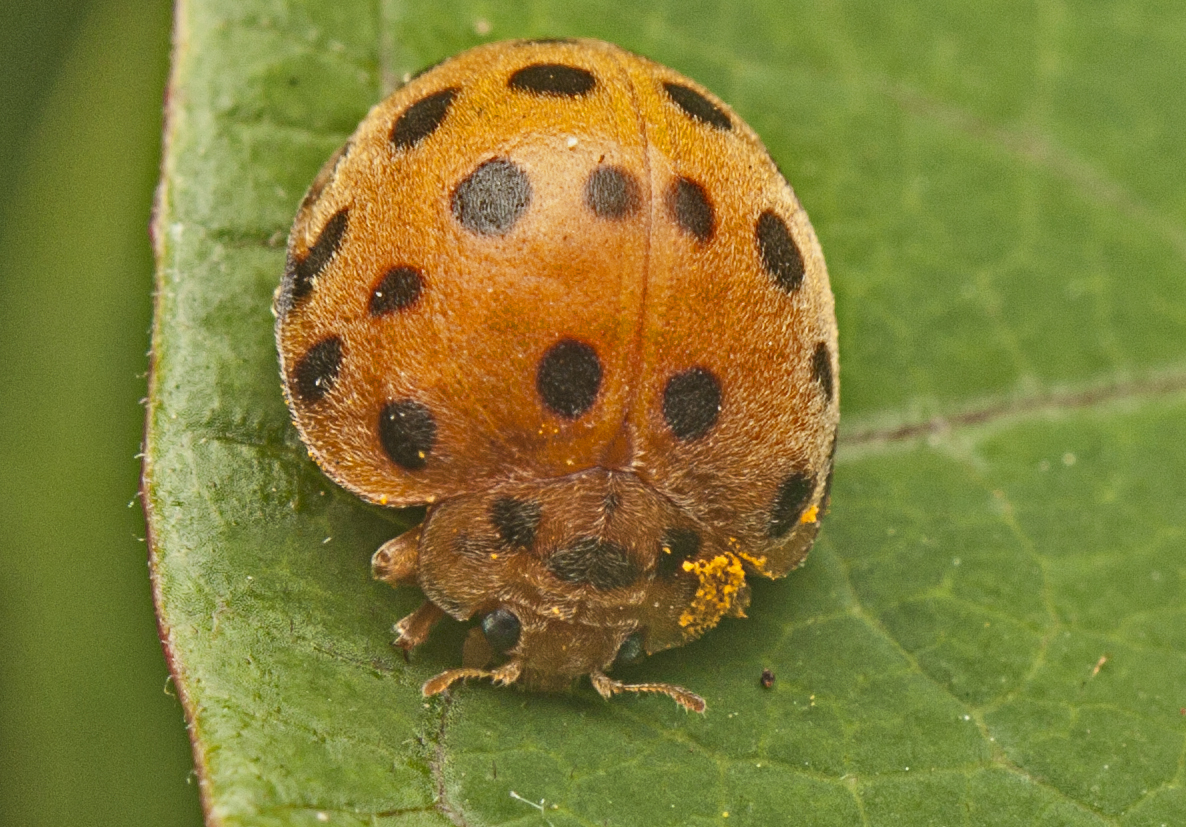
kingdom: Animalia
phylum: Arthropoda
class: Insecta
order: Coleoptera
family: Coccinellidae
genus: Henosepilachna
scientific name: Henosepilachna vigintioctopunctata
